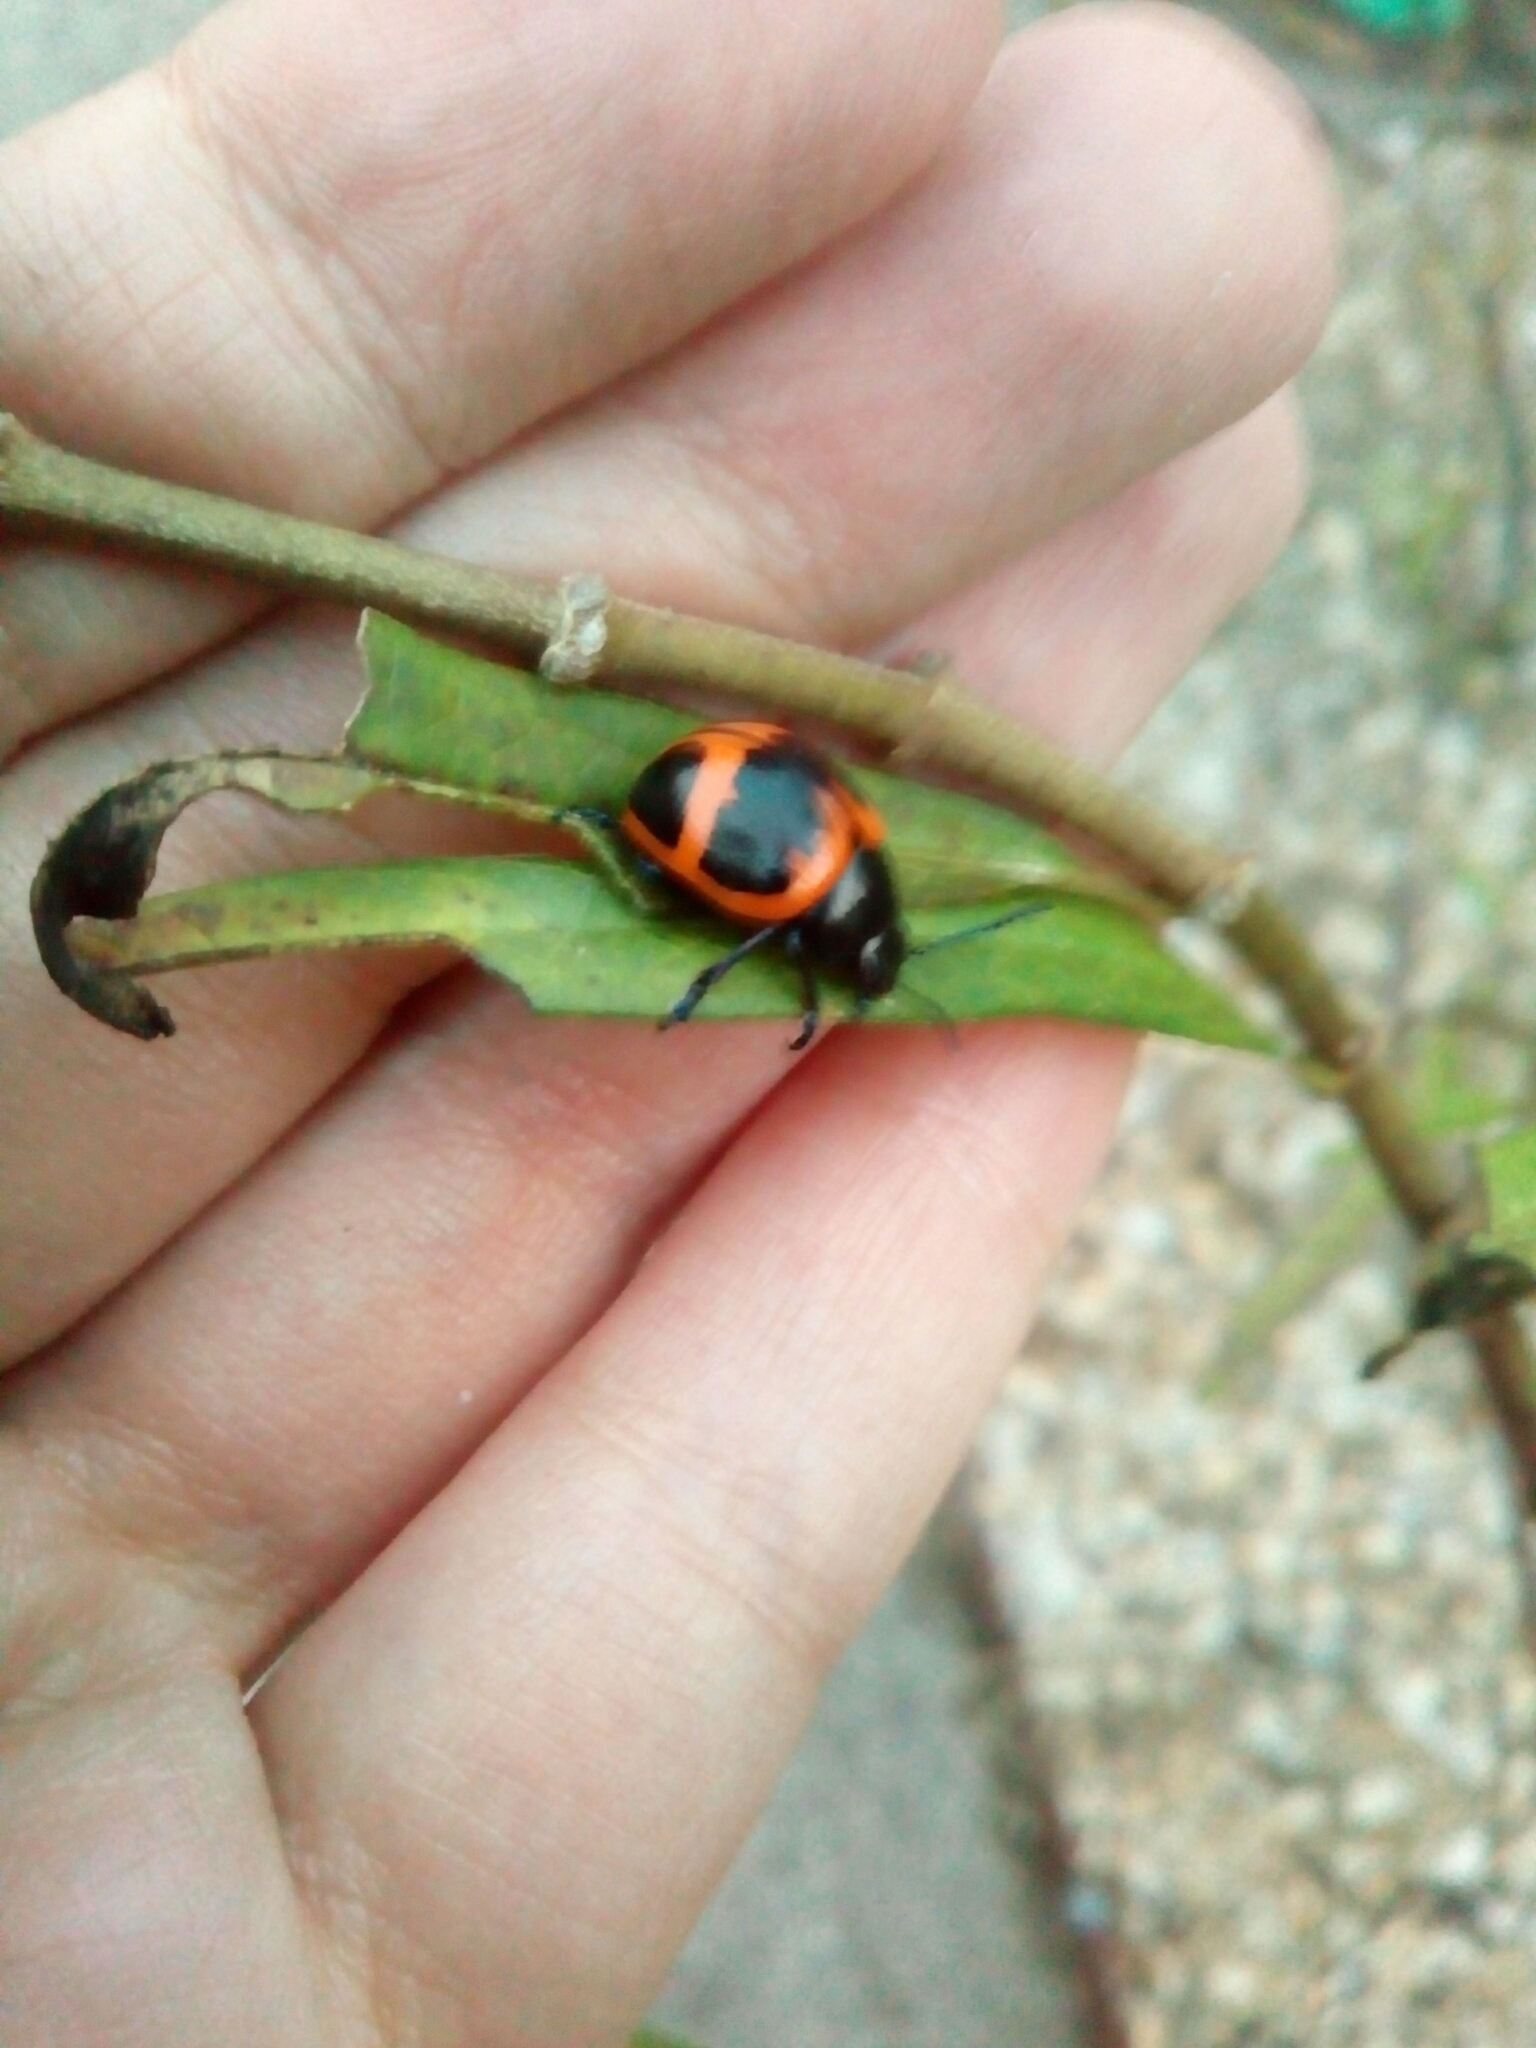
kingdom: Animalia
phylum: Arthropoda
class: Insecta
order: Coleoptera
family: Chrysomelidae
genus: Labidomera
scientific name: Labidomera clivicollis
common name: Swamp milkweed leaf beetle
